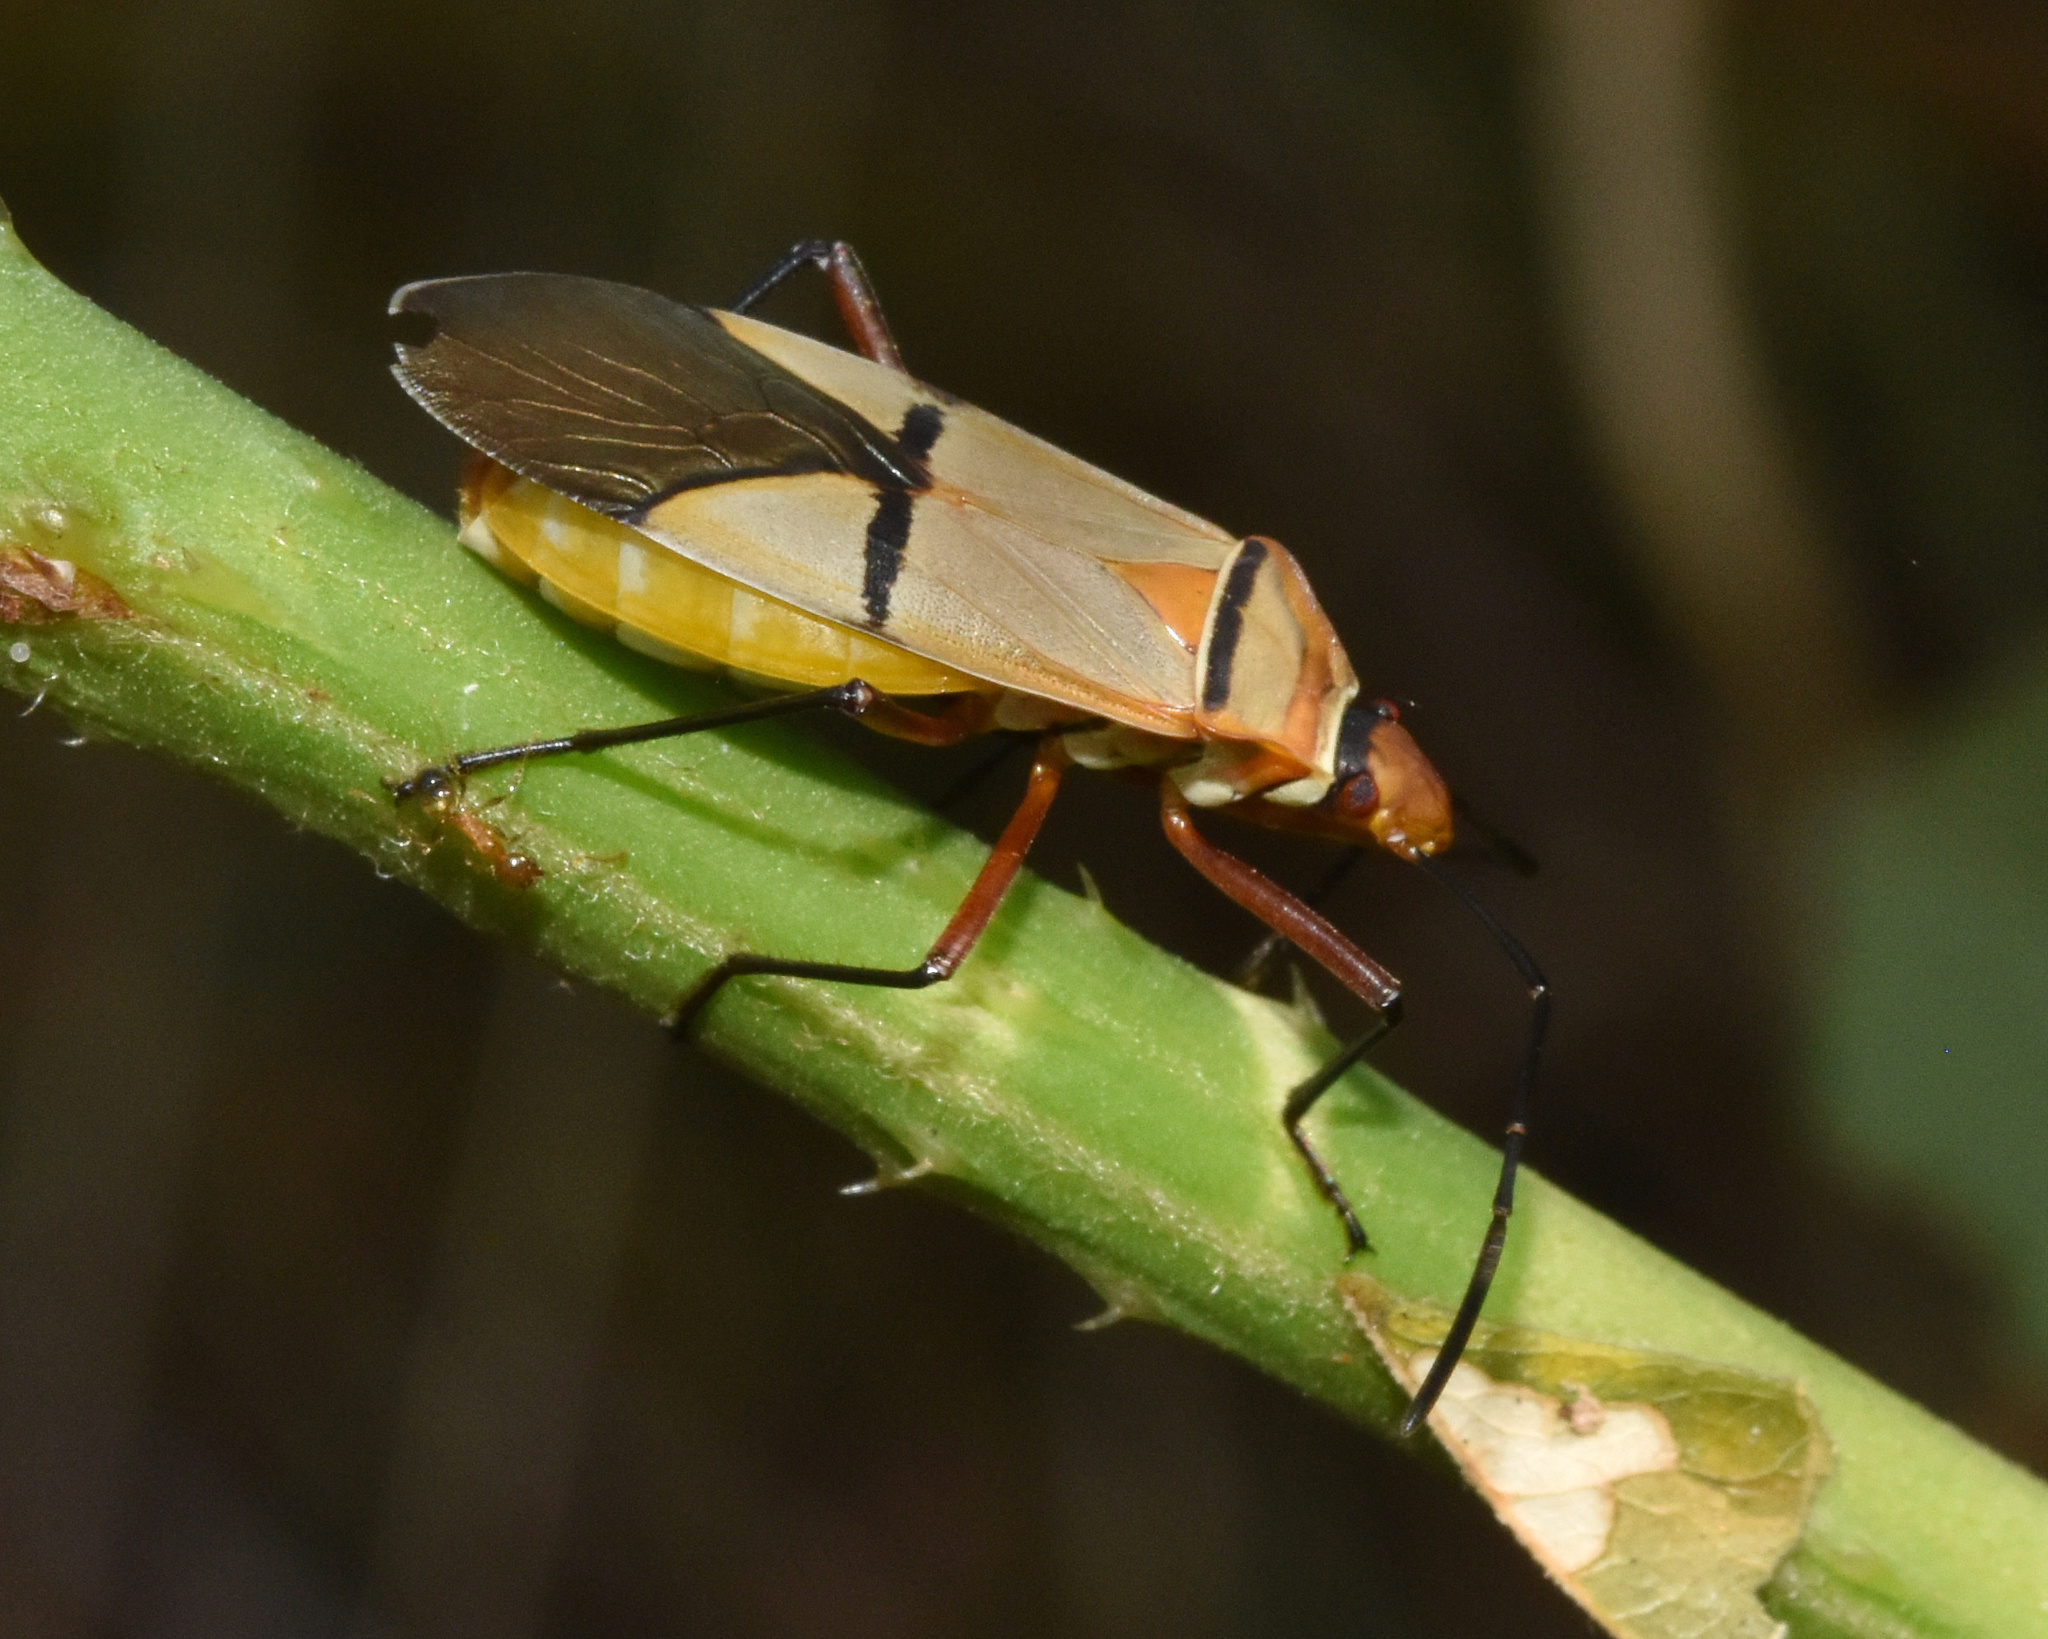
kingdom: Animalia
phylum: Arthropoda
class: Insecta
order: Hemiptera
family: Pyrrhocoridae
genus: Dysdercus
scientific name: Dysdercus
